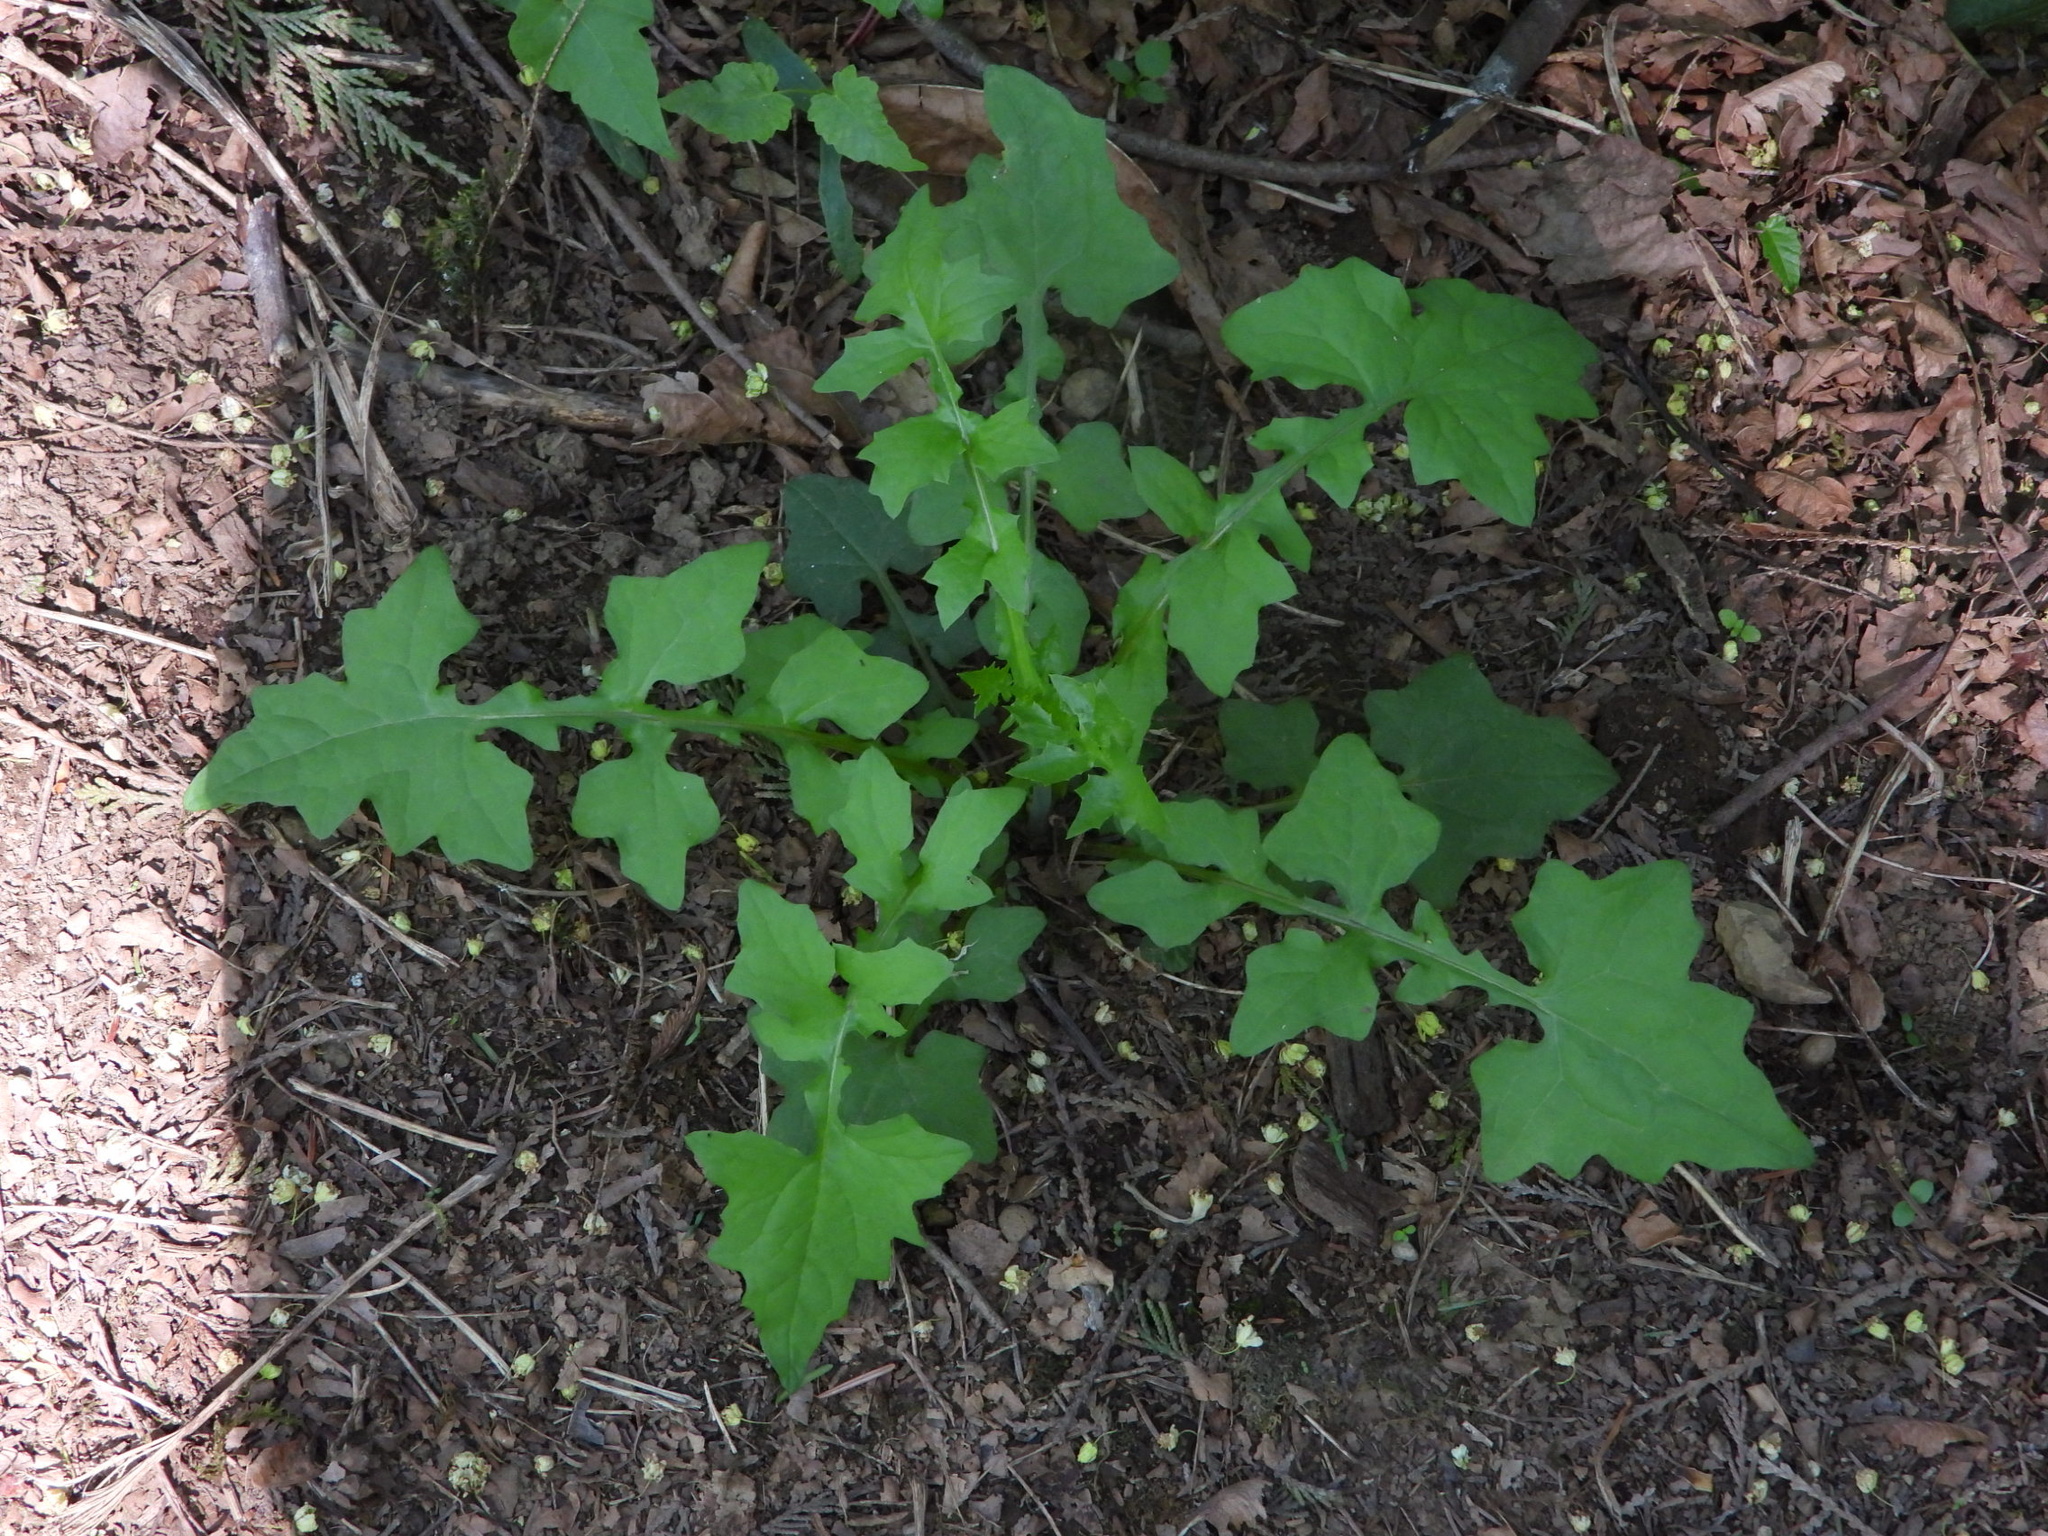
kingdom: Plantae
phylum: Tracheophyta
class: Magnoliopsida
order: Asterales
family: Asteraceae
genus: Mycelis
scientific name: Mycelis muralis
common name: Wall lettuce
